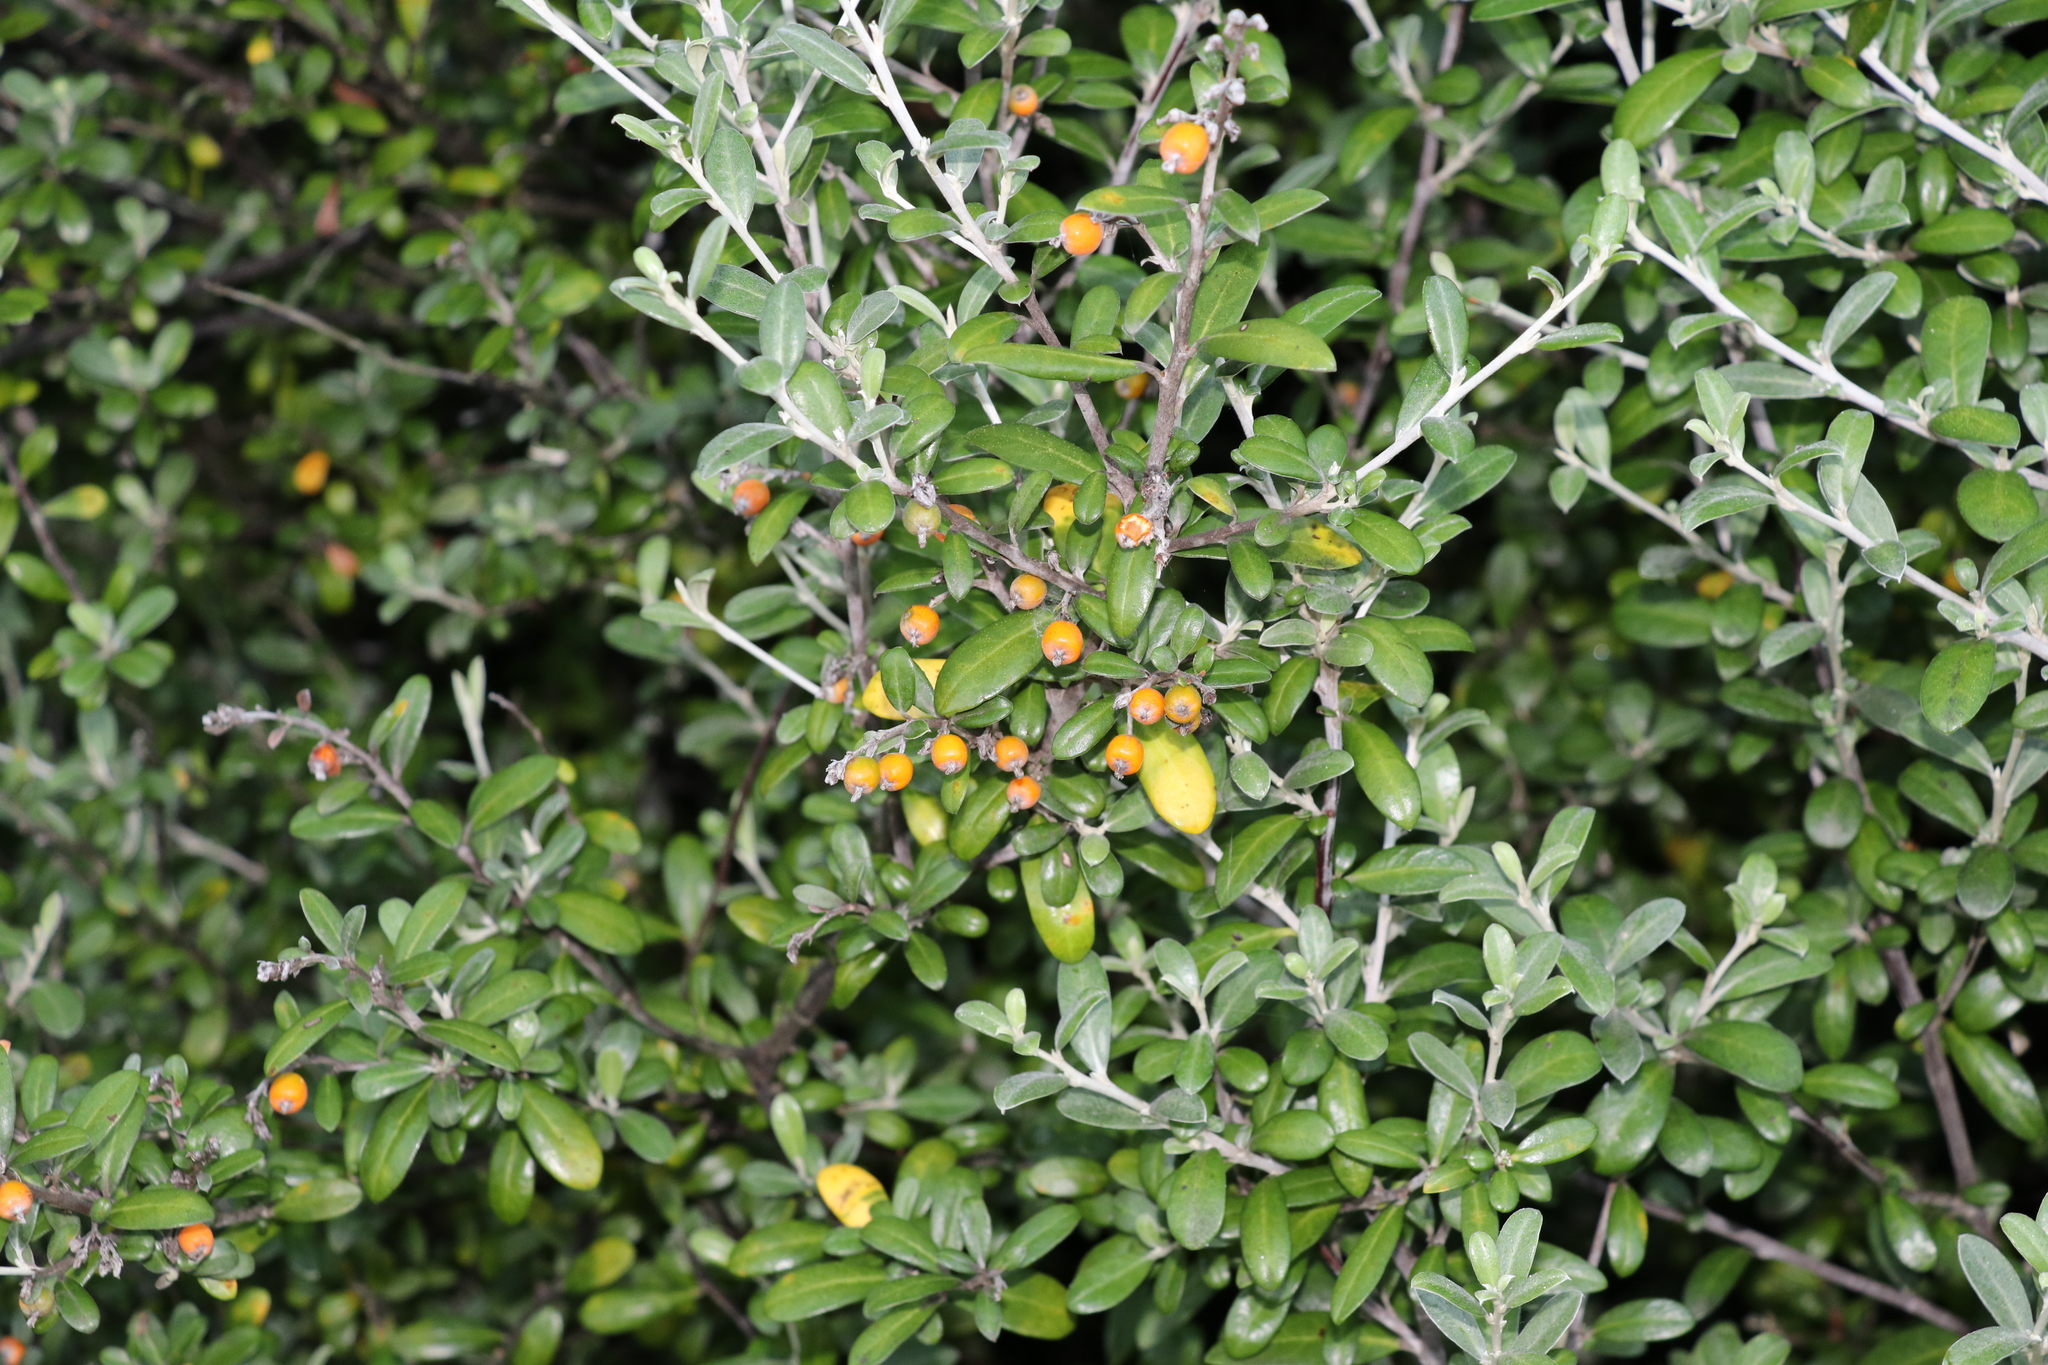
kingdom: Plantae
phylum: Tracheophyta
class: Magnoliopsida
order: Asterales
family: Argophyllaceae
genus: Corokia
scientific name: Corokia cotoneaster
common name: Wire nettingbush
